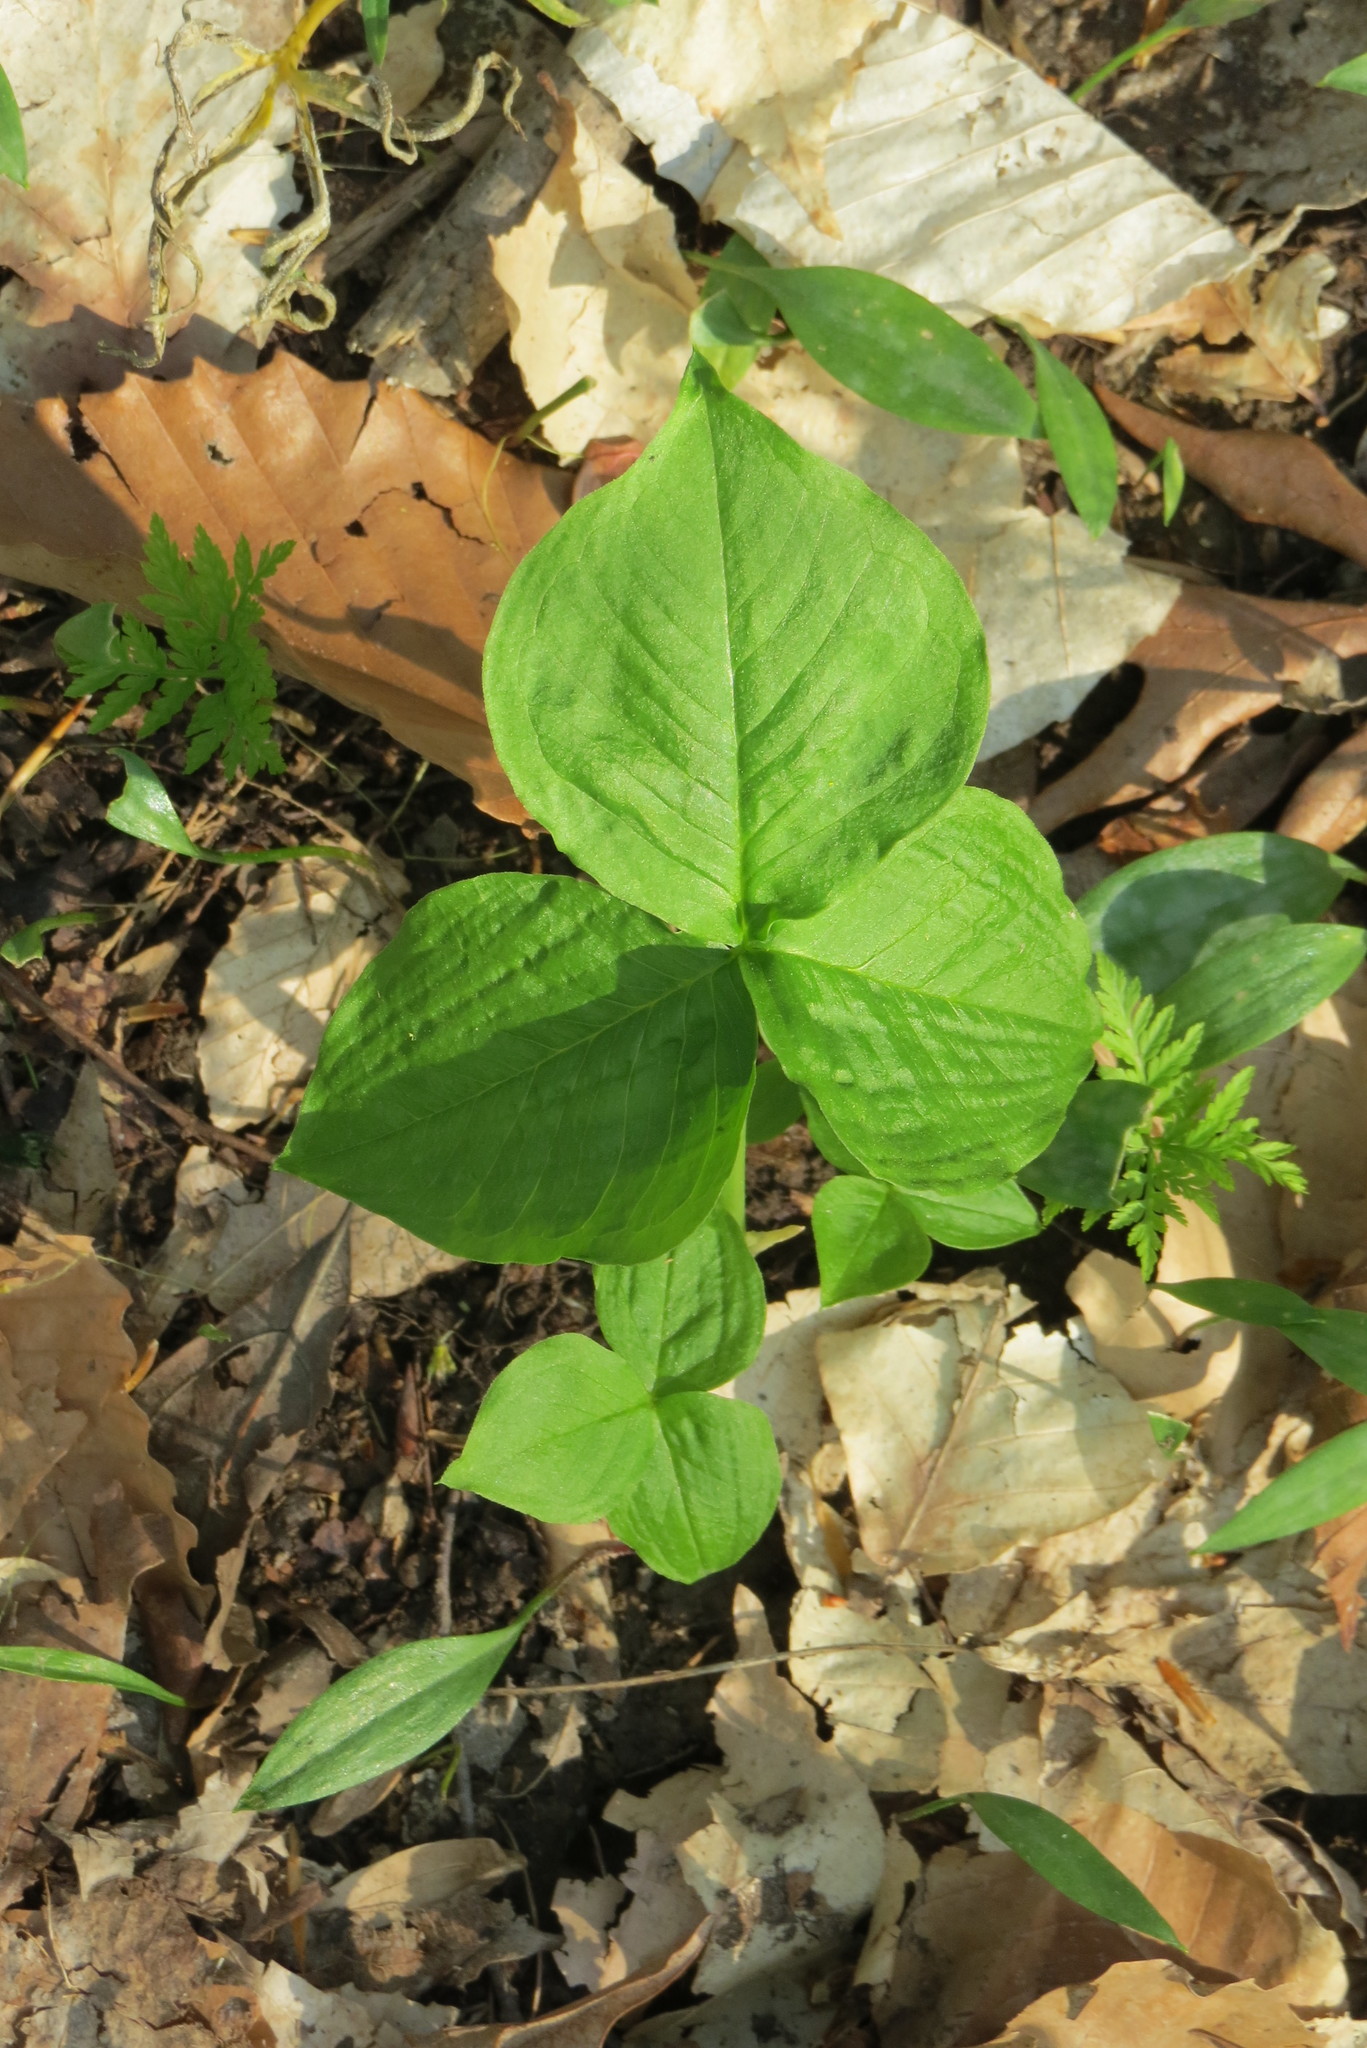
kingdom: Plantae
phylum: Tracheophyta
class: Liliopsida
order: Alismatales
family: Araceae
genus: Arisaema
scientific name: Arisaema triphyllum
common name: Jack-in-the-pulpit
